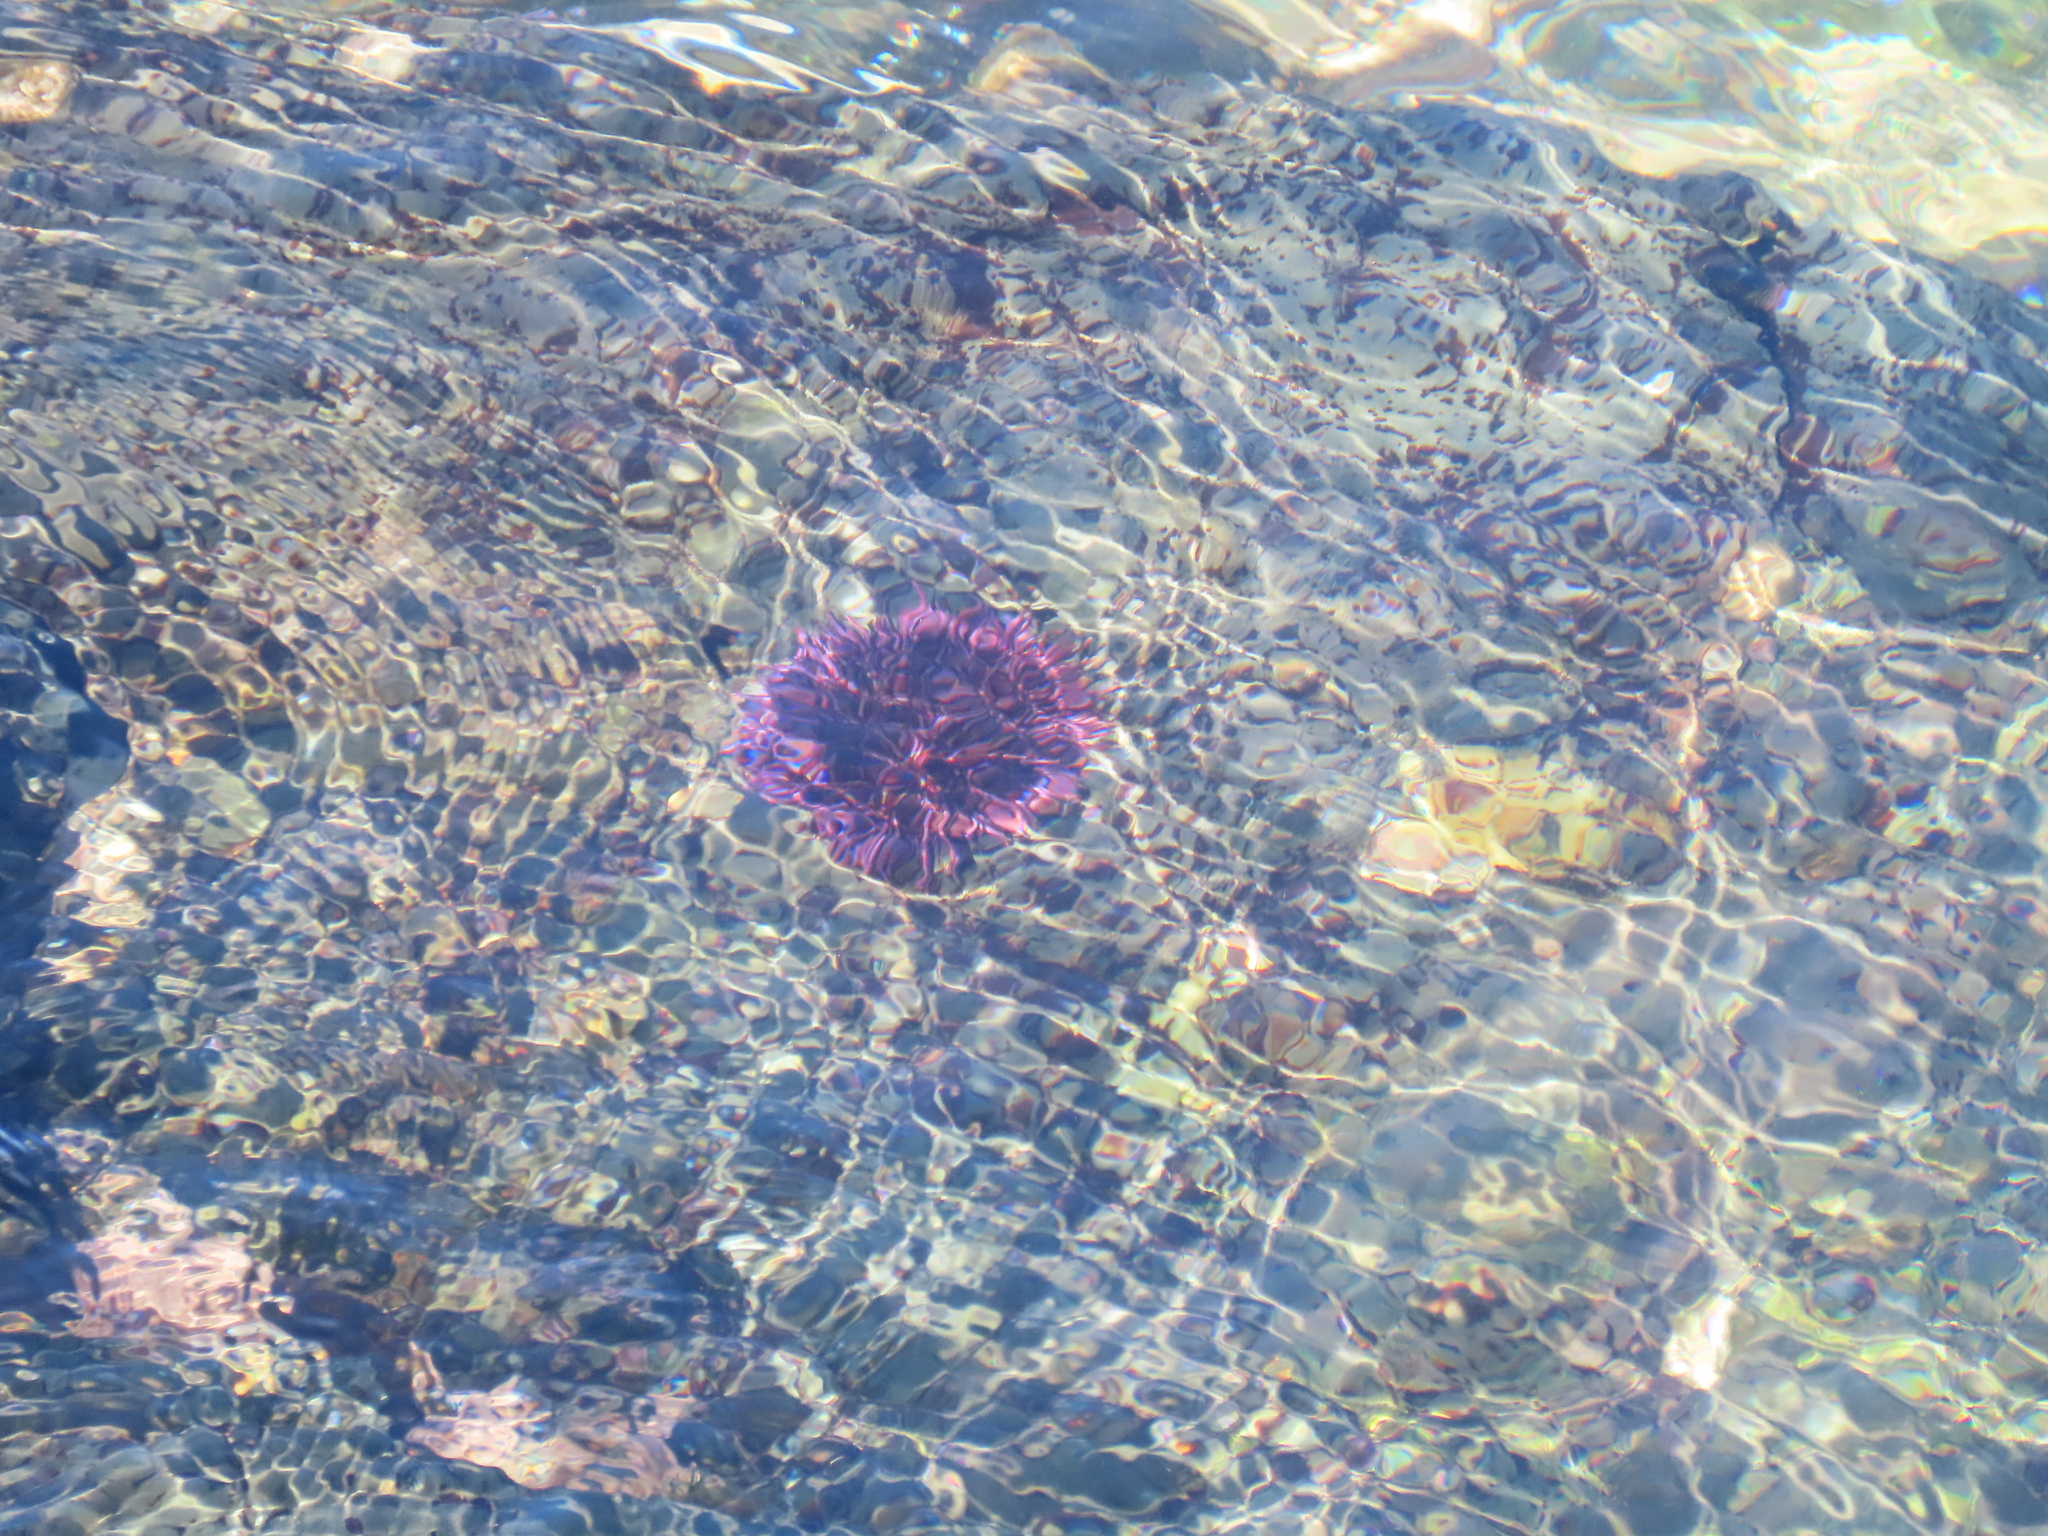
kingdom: Animalia
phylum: Echinodermata
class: Echinoidea
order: Camarodonta
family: Strongylocentrotidae
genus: Strongylocentrotus
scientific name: Strongylocentrotus purpuratus
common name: Purple sea urchin
